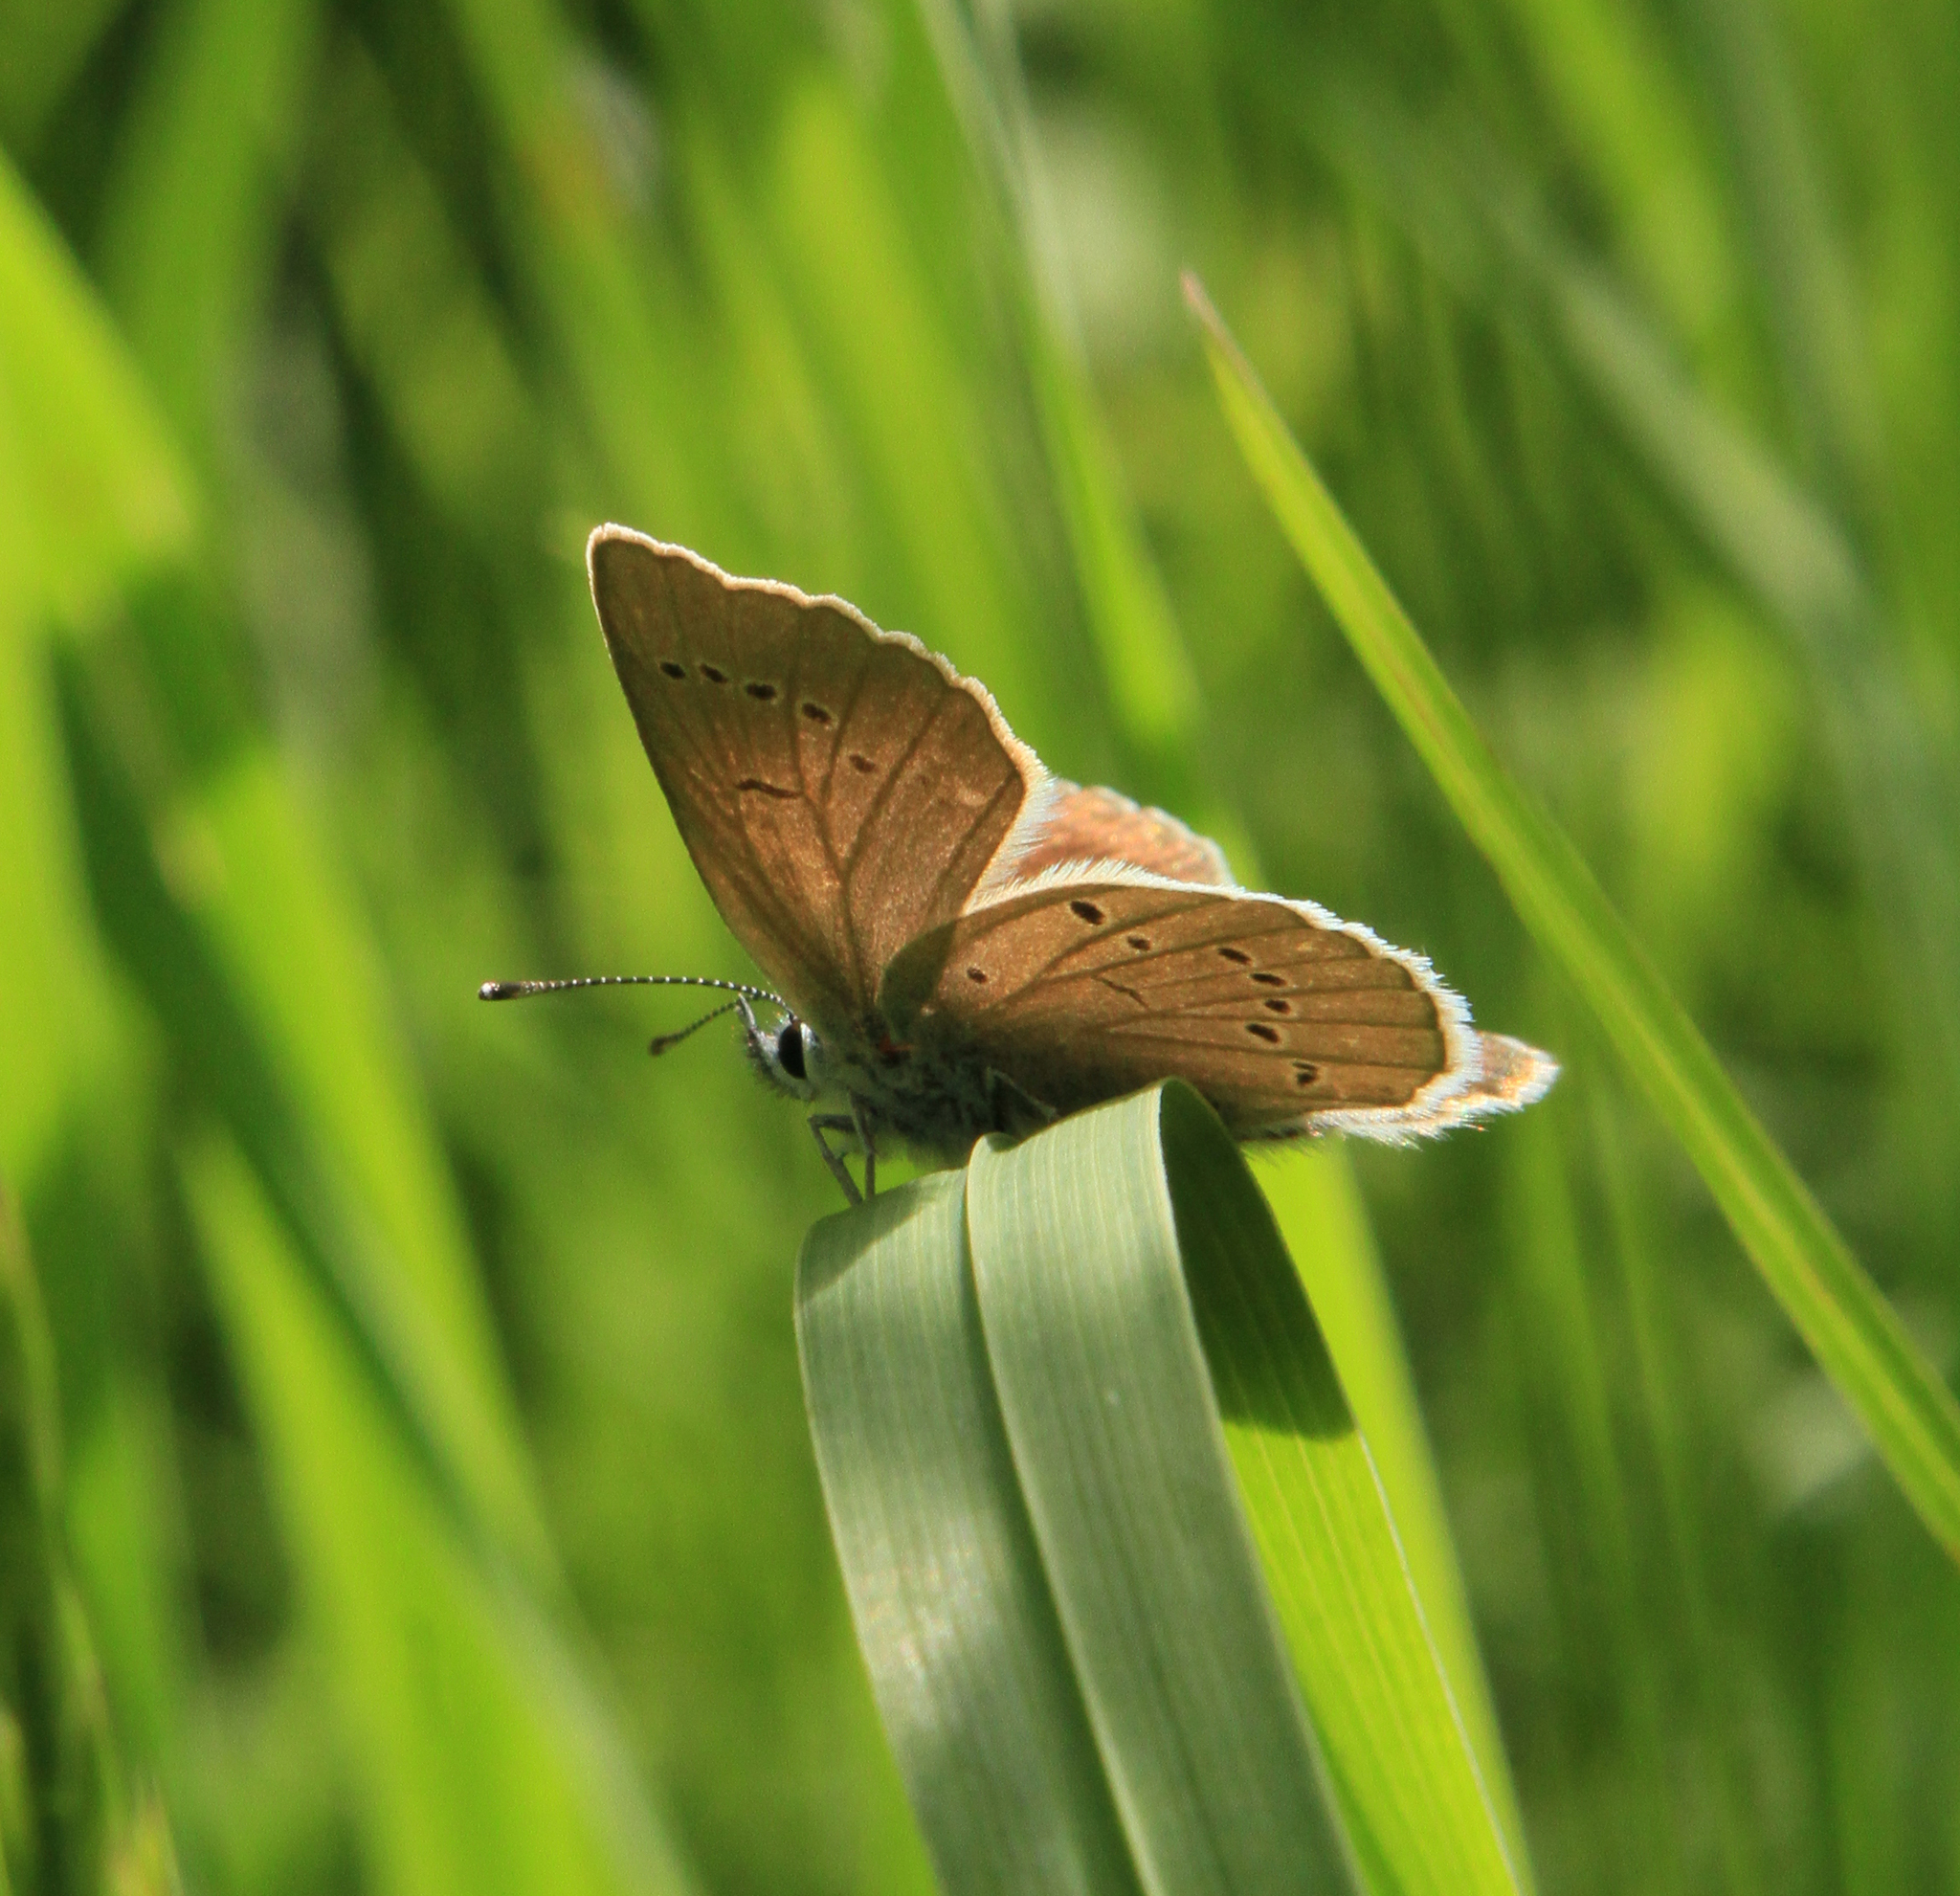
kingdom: Animalia
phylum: Arthropoda
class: Insecta
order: Lepidoptera
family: Lycaenidae
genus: Cyaniris
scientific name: Cyaniris semiargus
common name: Mazarine blue
